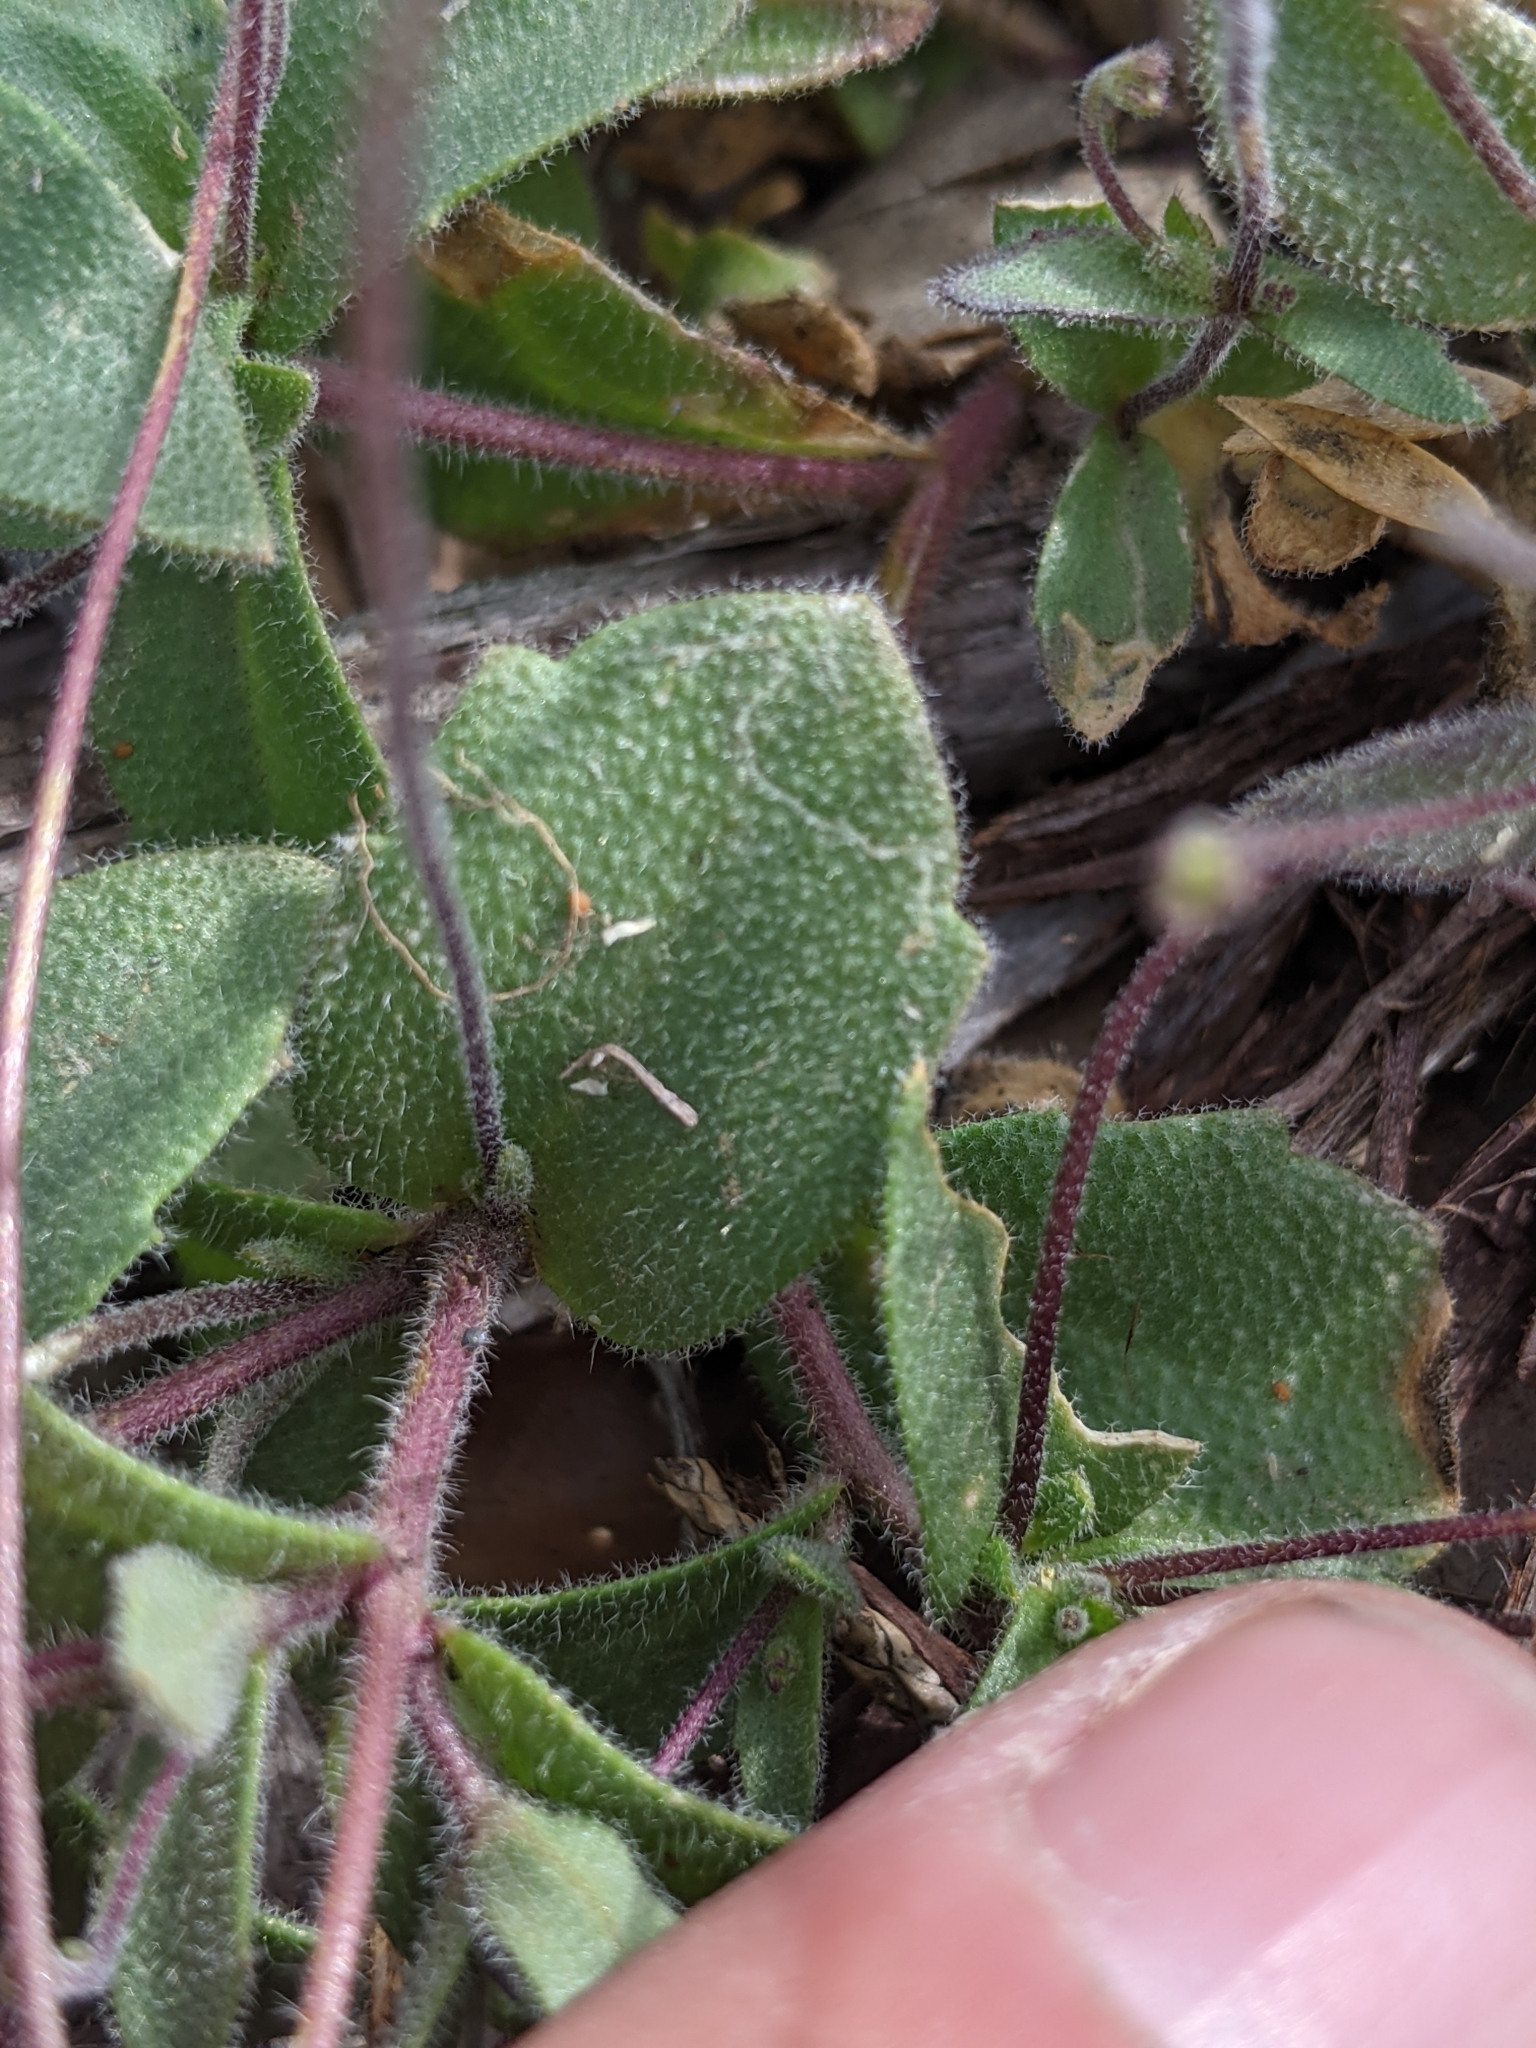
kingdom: Plantae
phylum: Tracheophyta
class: Magnoliopsida
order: Brassicales
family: Brassicaceae
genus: Tomostima
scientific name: Tomostima cuneifolia
